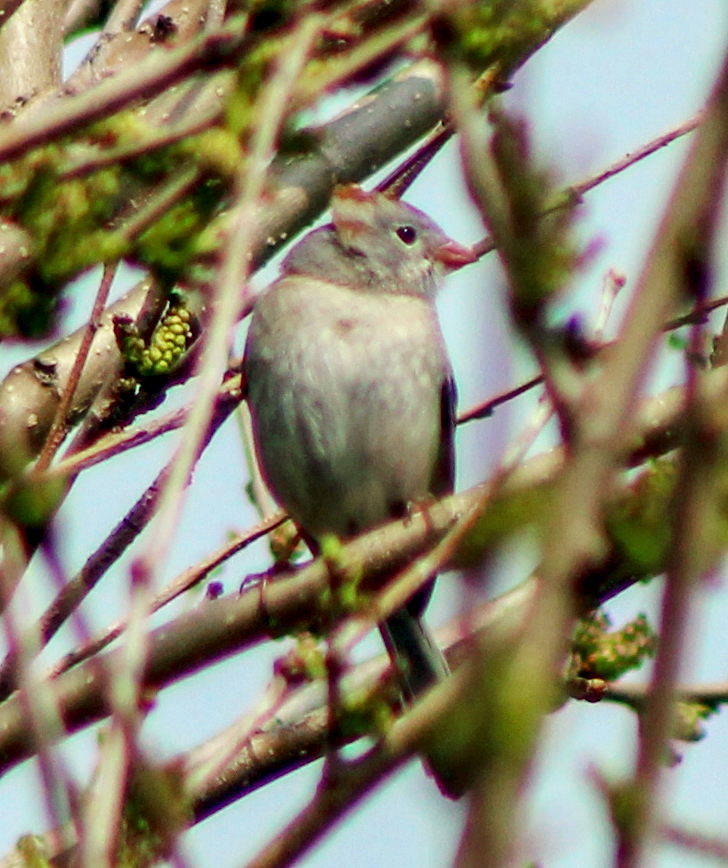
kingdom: Animalia
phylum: Chordata
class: Aves
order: Passeriformes
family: Passerellidae
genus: Spizella
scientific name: Spizella pusilla
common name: Field sparrow
